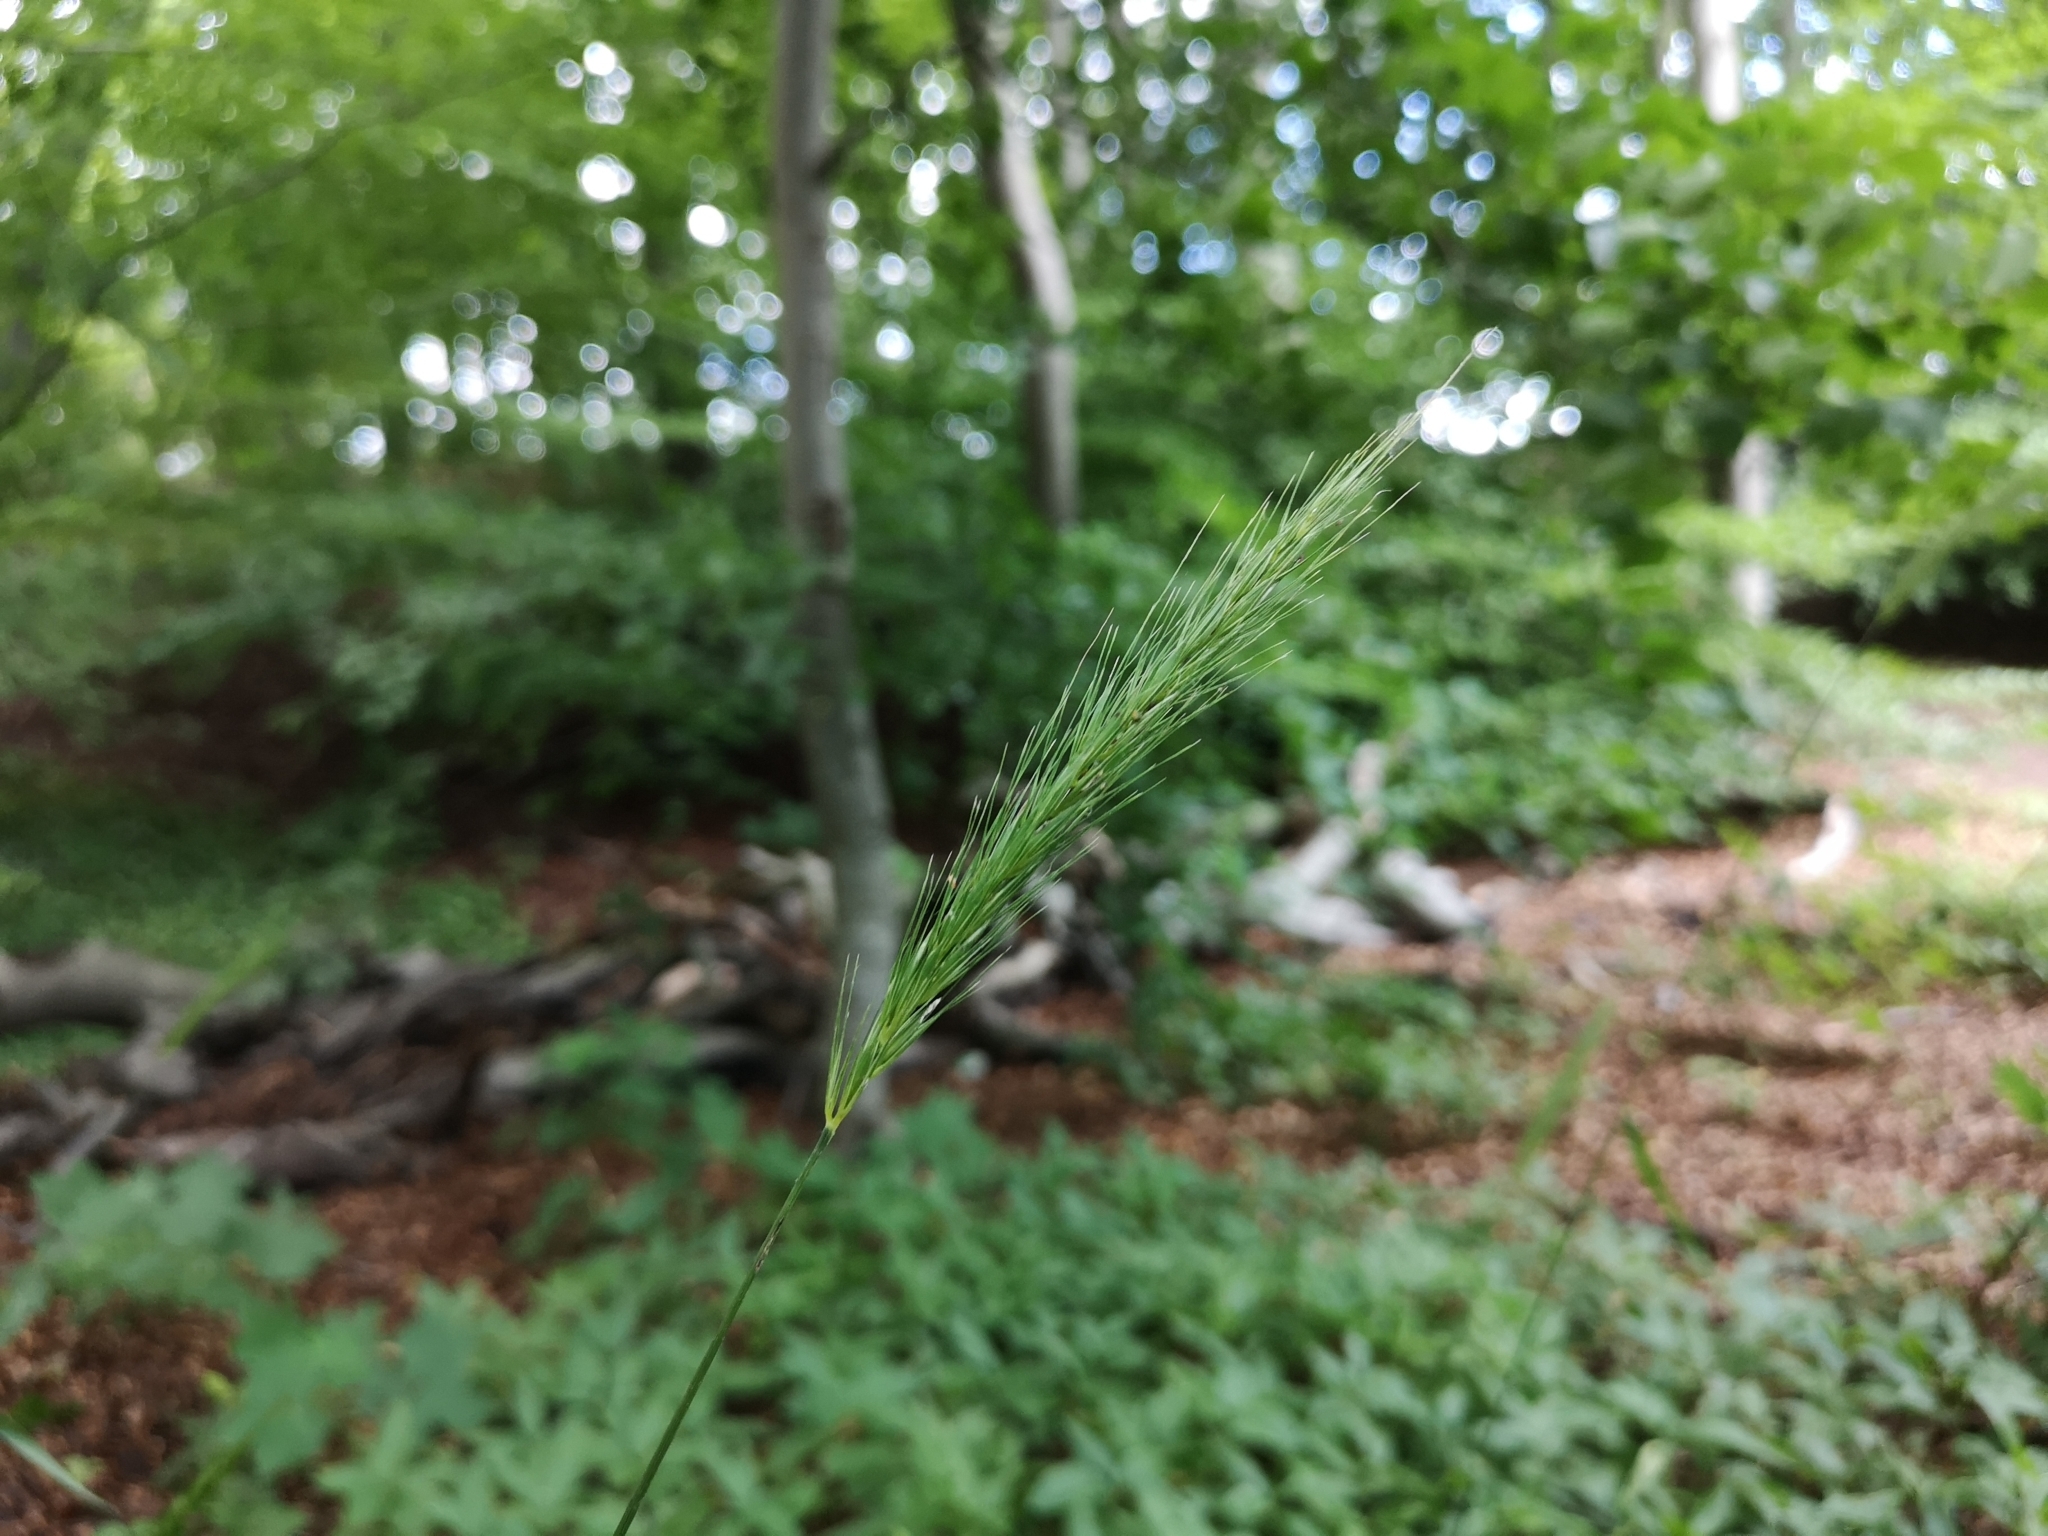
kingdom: Plantae
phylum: Tracheophyta
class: Liliopsida
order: Poales
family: Poaceae
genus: Hordelymus
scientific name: Hordelymus europaeus
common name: Wood-barley
